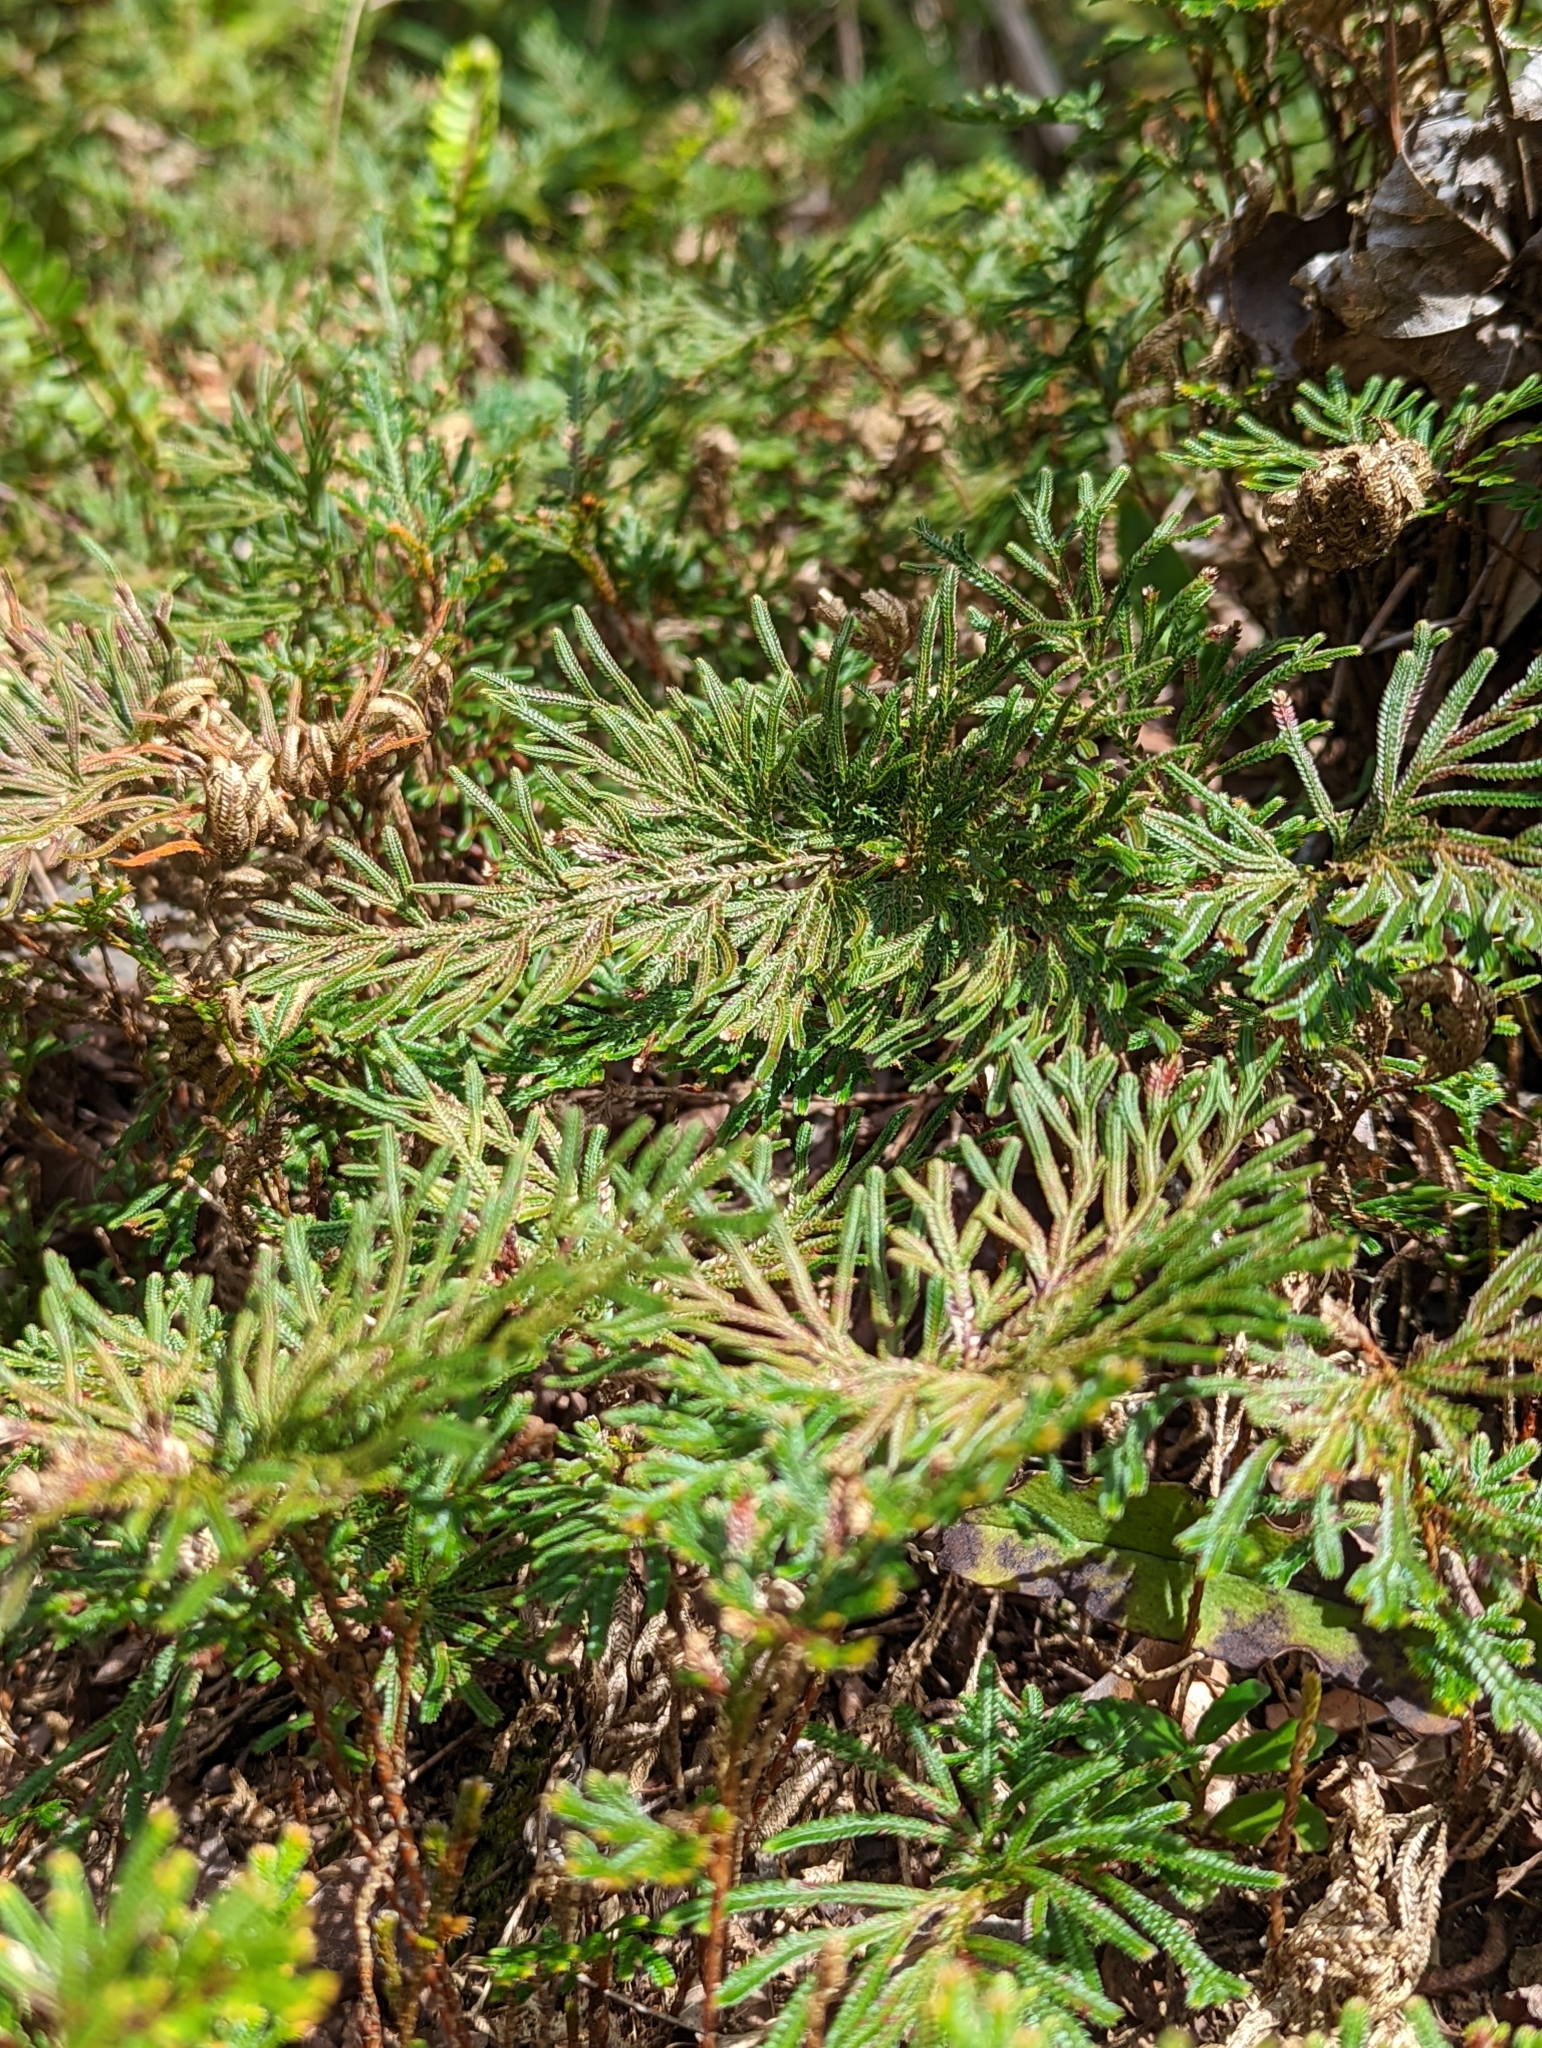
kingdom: Plantae
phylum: Tracheophyta
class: Lycopodiopsida
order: Selaginellales
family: Selaginellaceae
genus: Selaginella
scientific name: Selaginella stauntoniana
